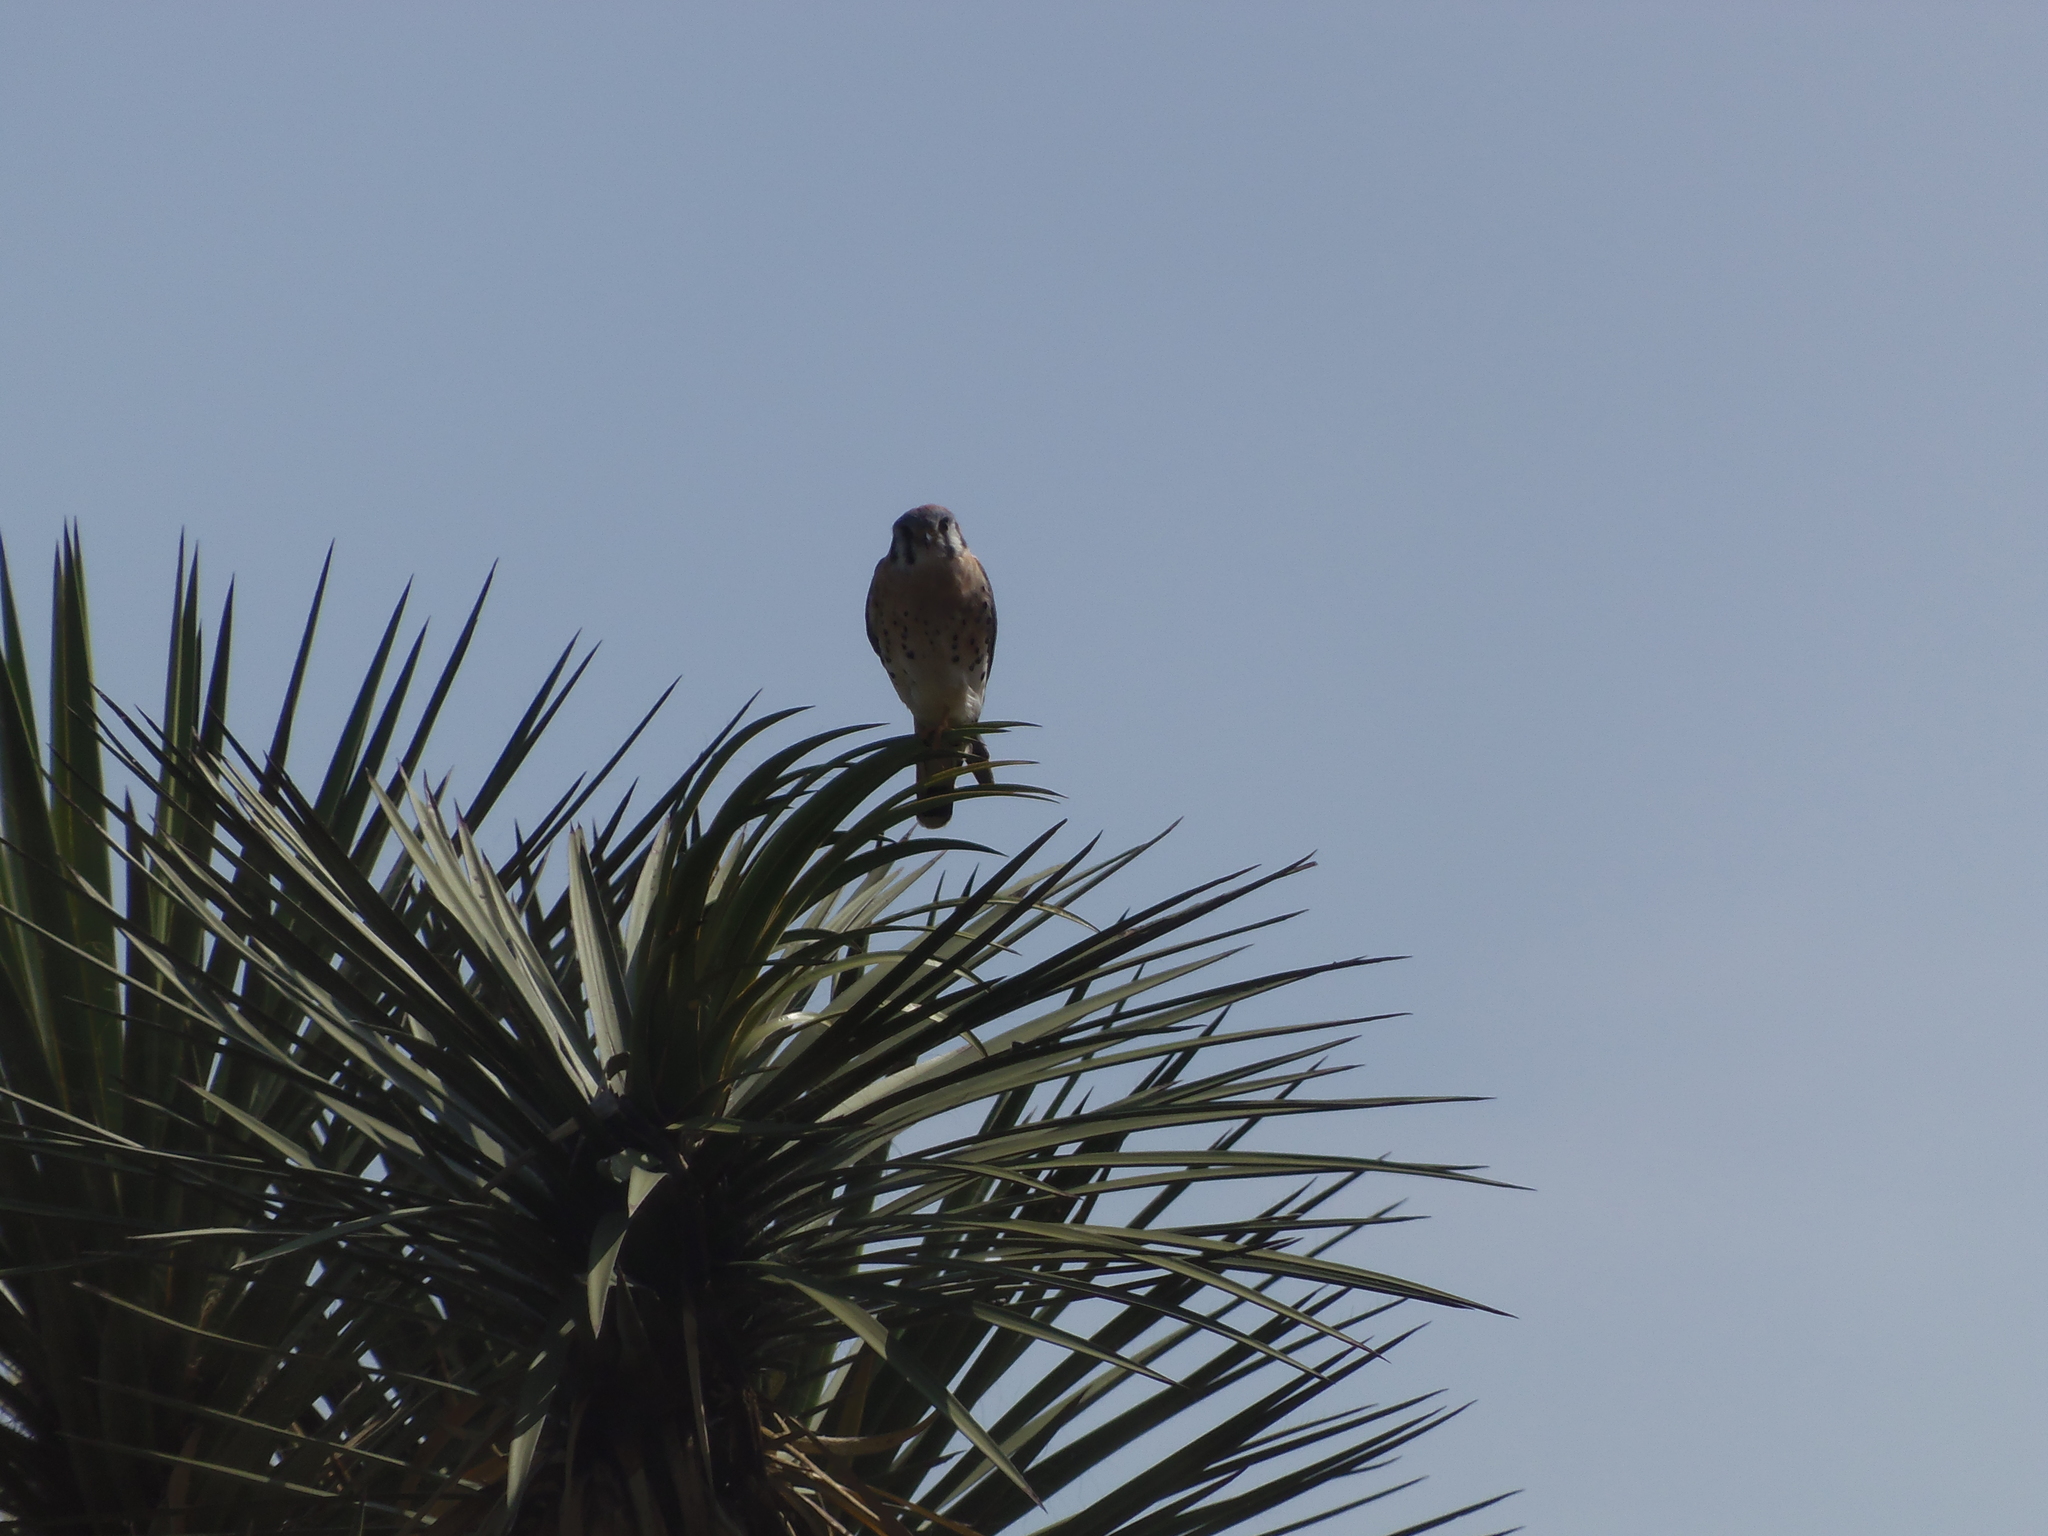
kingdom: Animalia
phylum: Chordata
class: Aves
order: Falconiformes
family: Falconidae
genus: Falco
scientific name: Falco sparverius
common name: American kestrel
